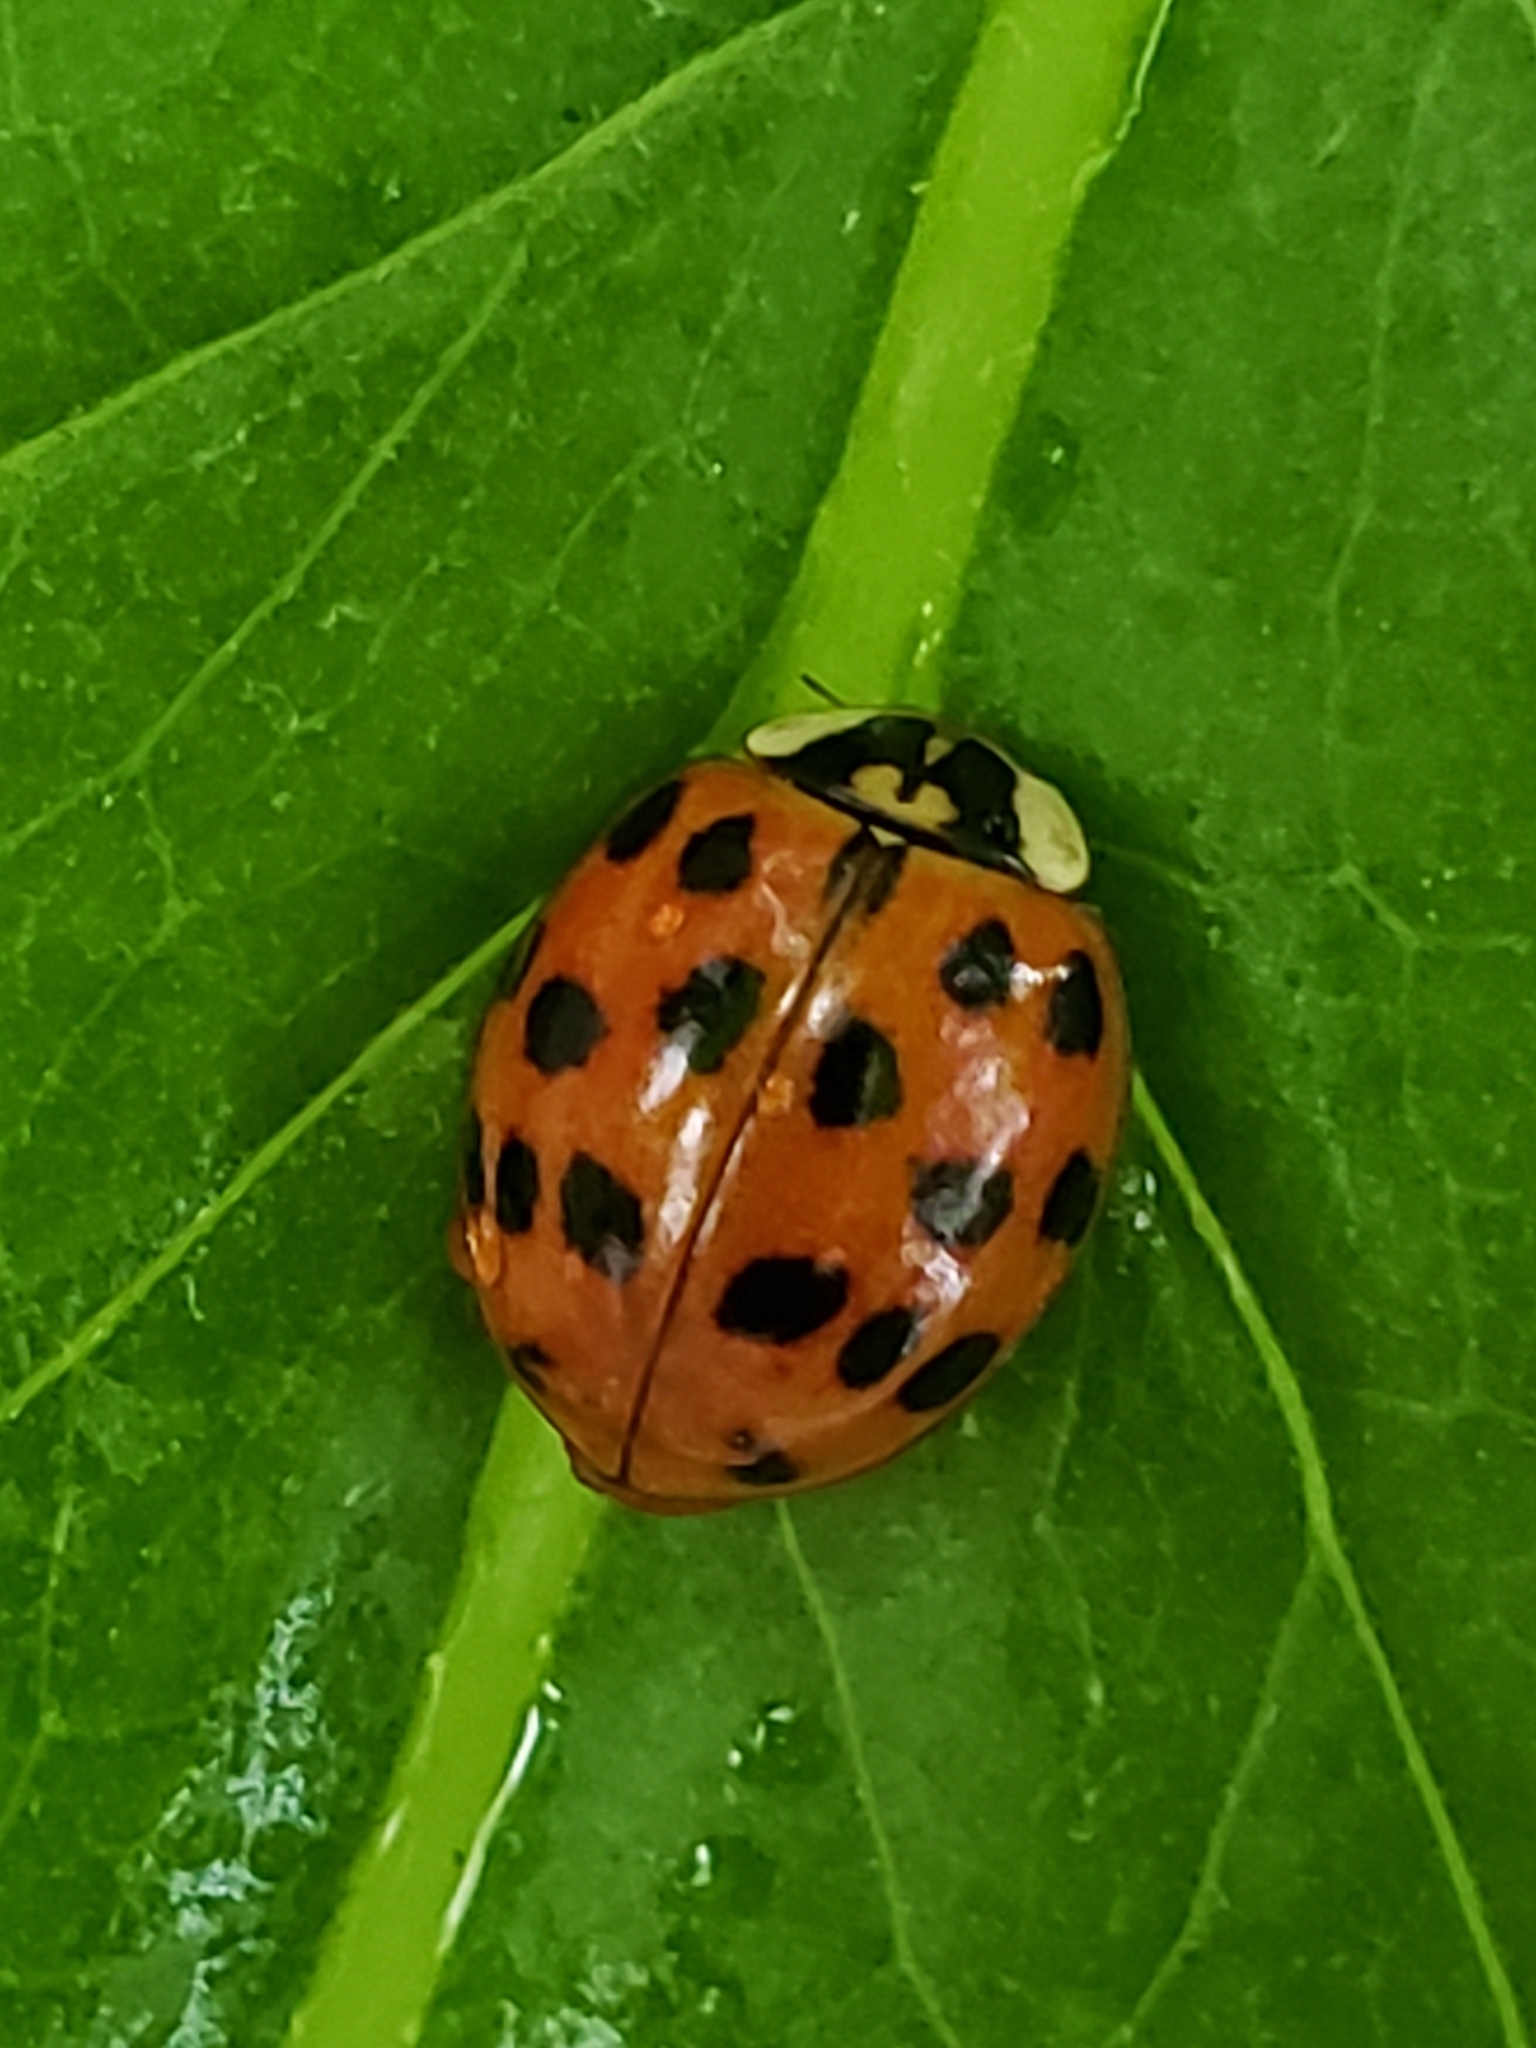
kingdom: Animalia
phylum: Arthropoda
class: Insecta
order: Coleoptera
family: Coccinellidae
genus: Harmonia
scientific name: Harmonia axyridis
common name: Harlequin ladybird
